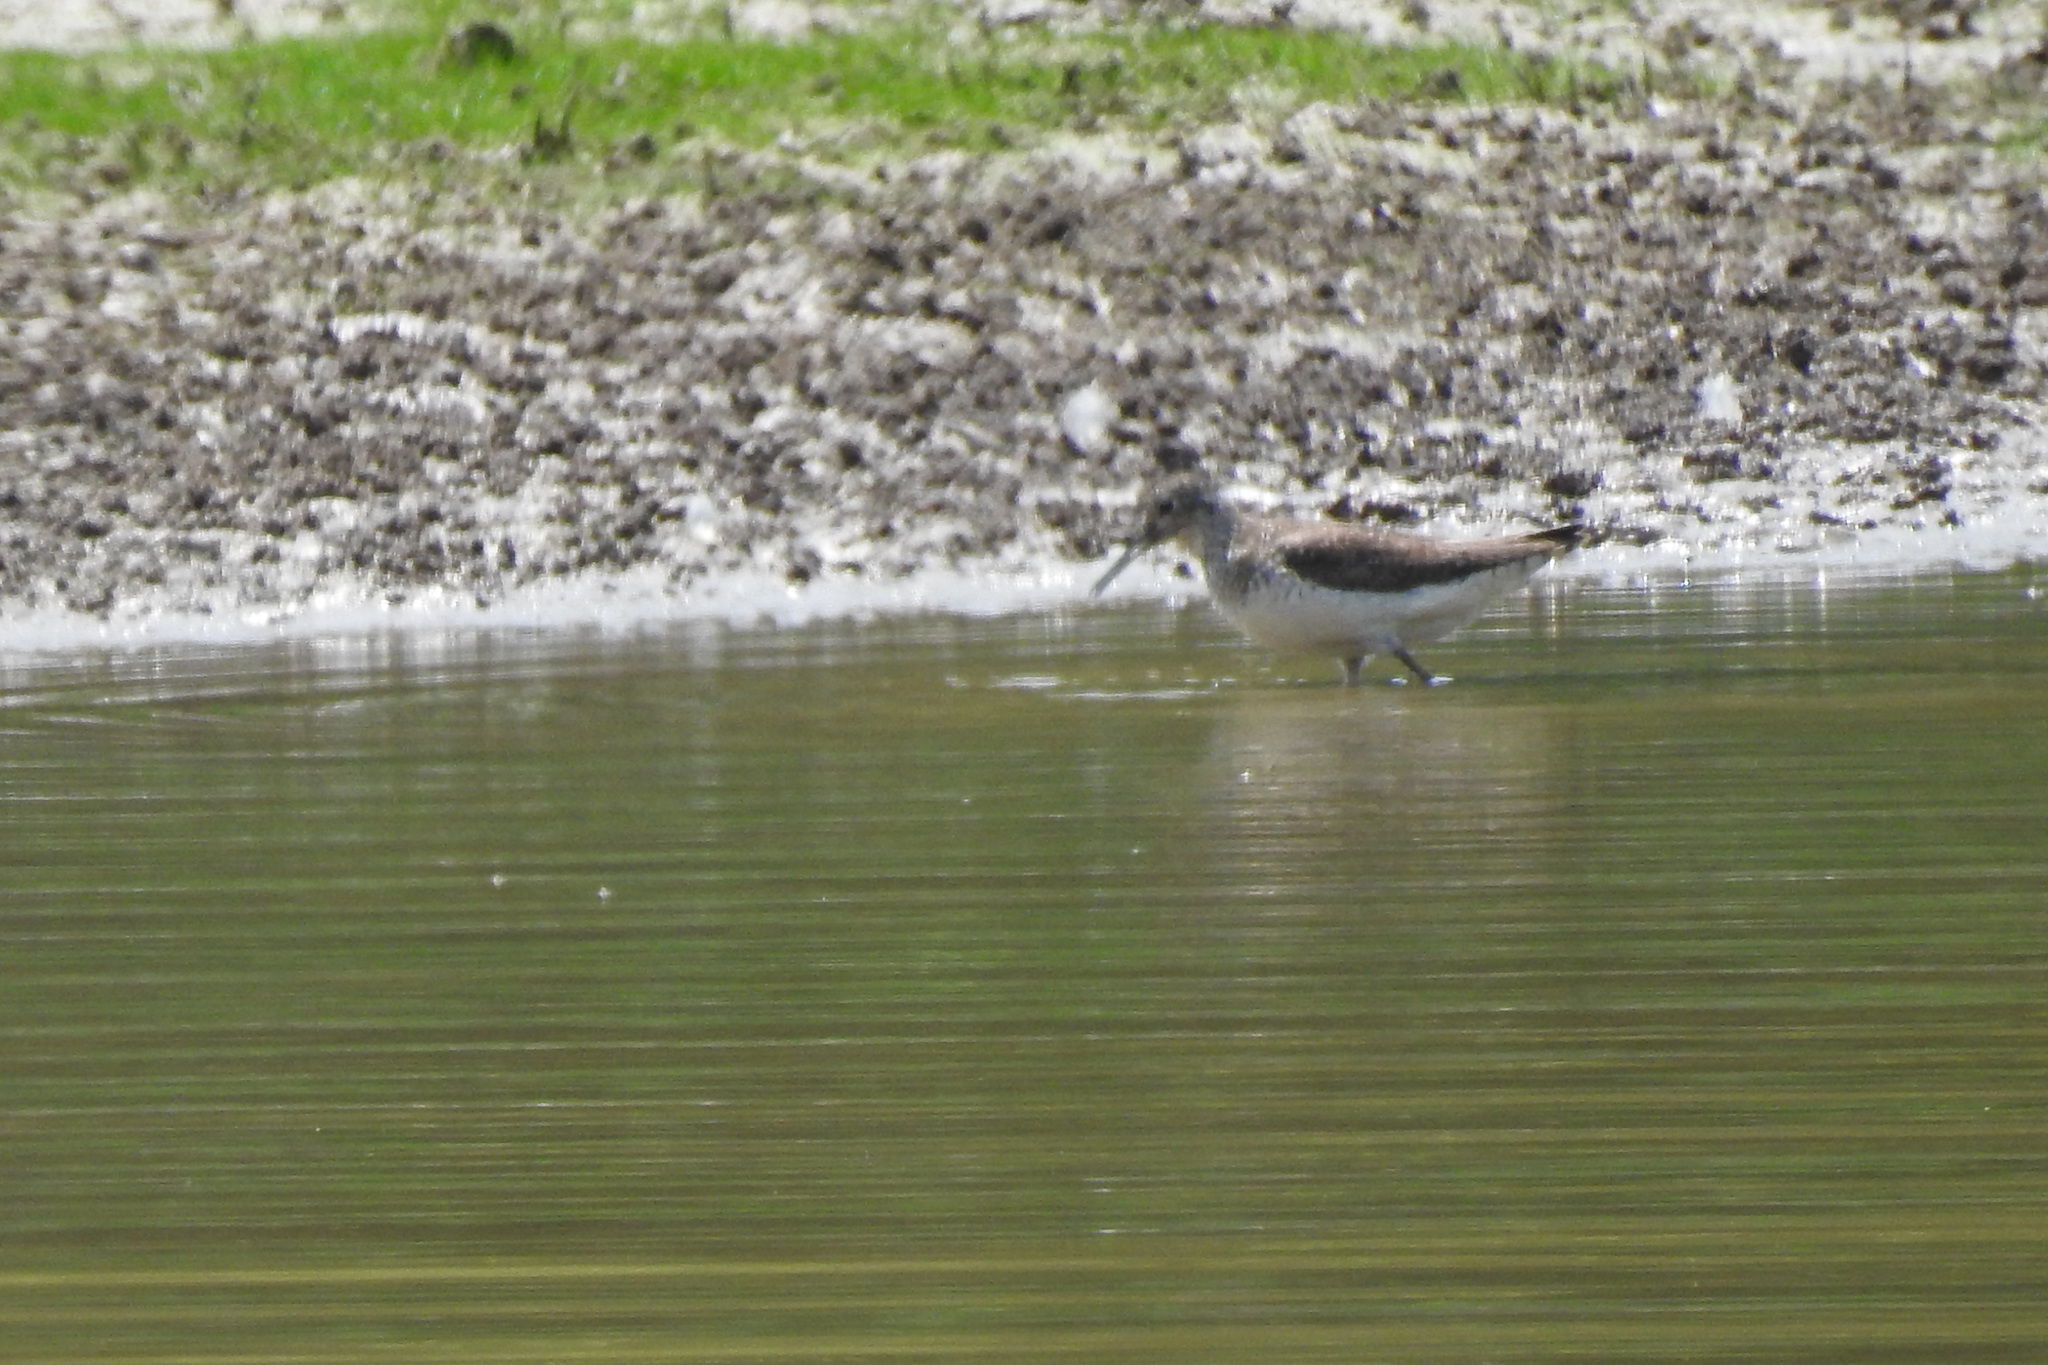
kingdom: Animalia
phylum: Chordata
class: Aves
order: Charadriiformes
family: Scolopacidae
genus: Tringa
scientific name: Tringa solitaria
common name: Solitary sandpiper
